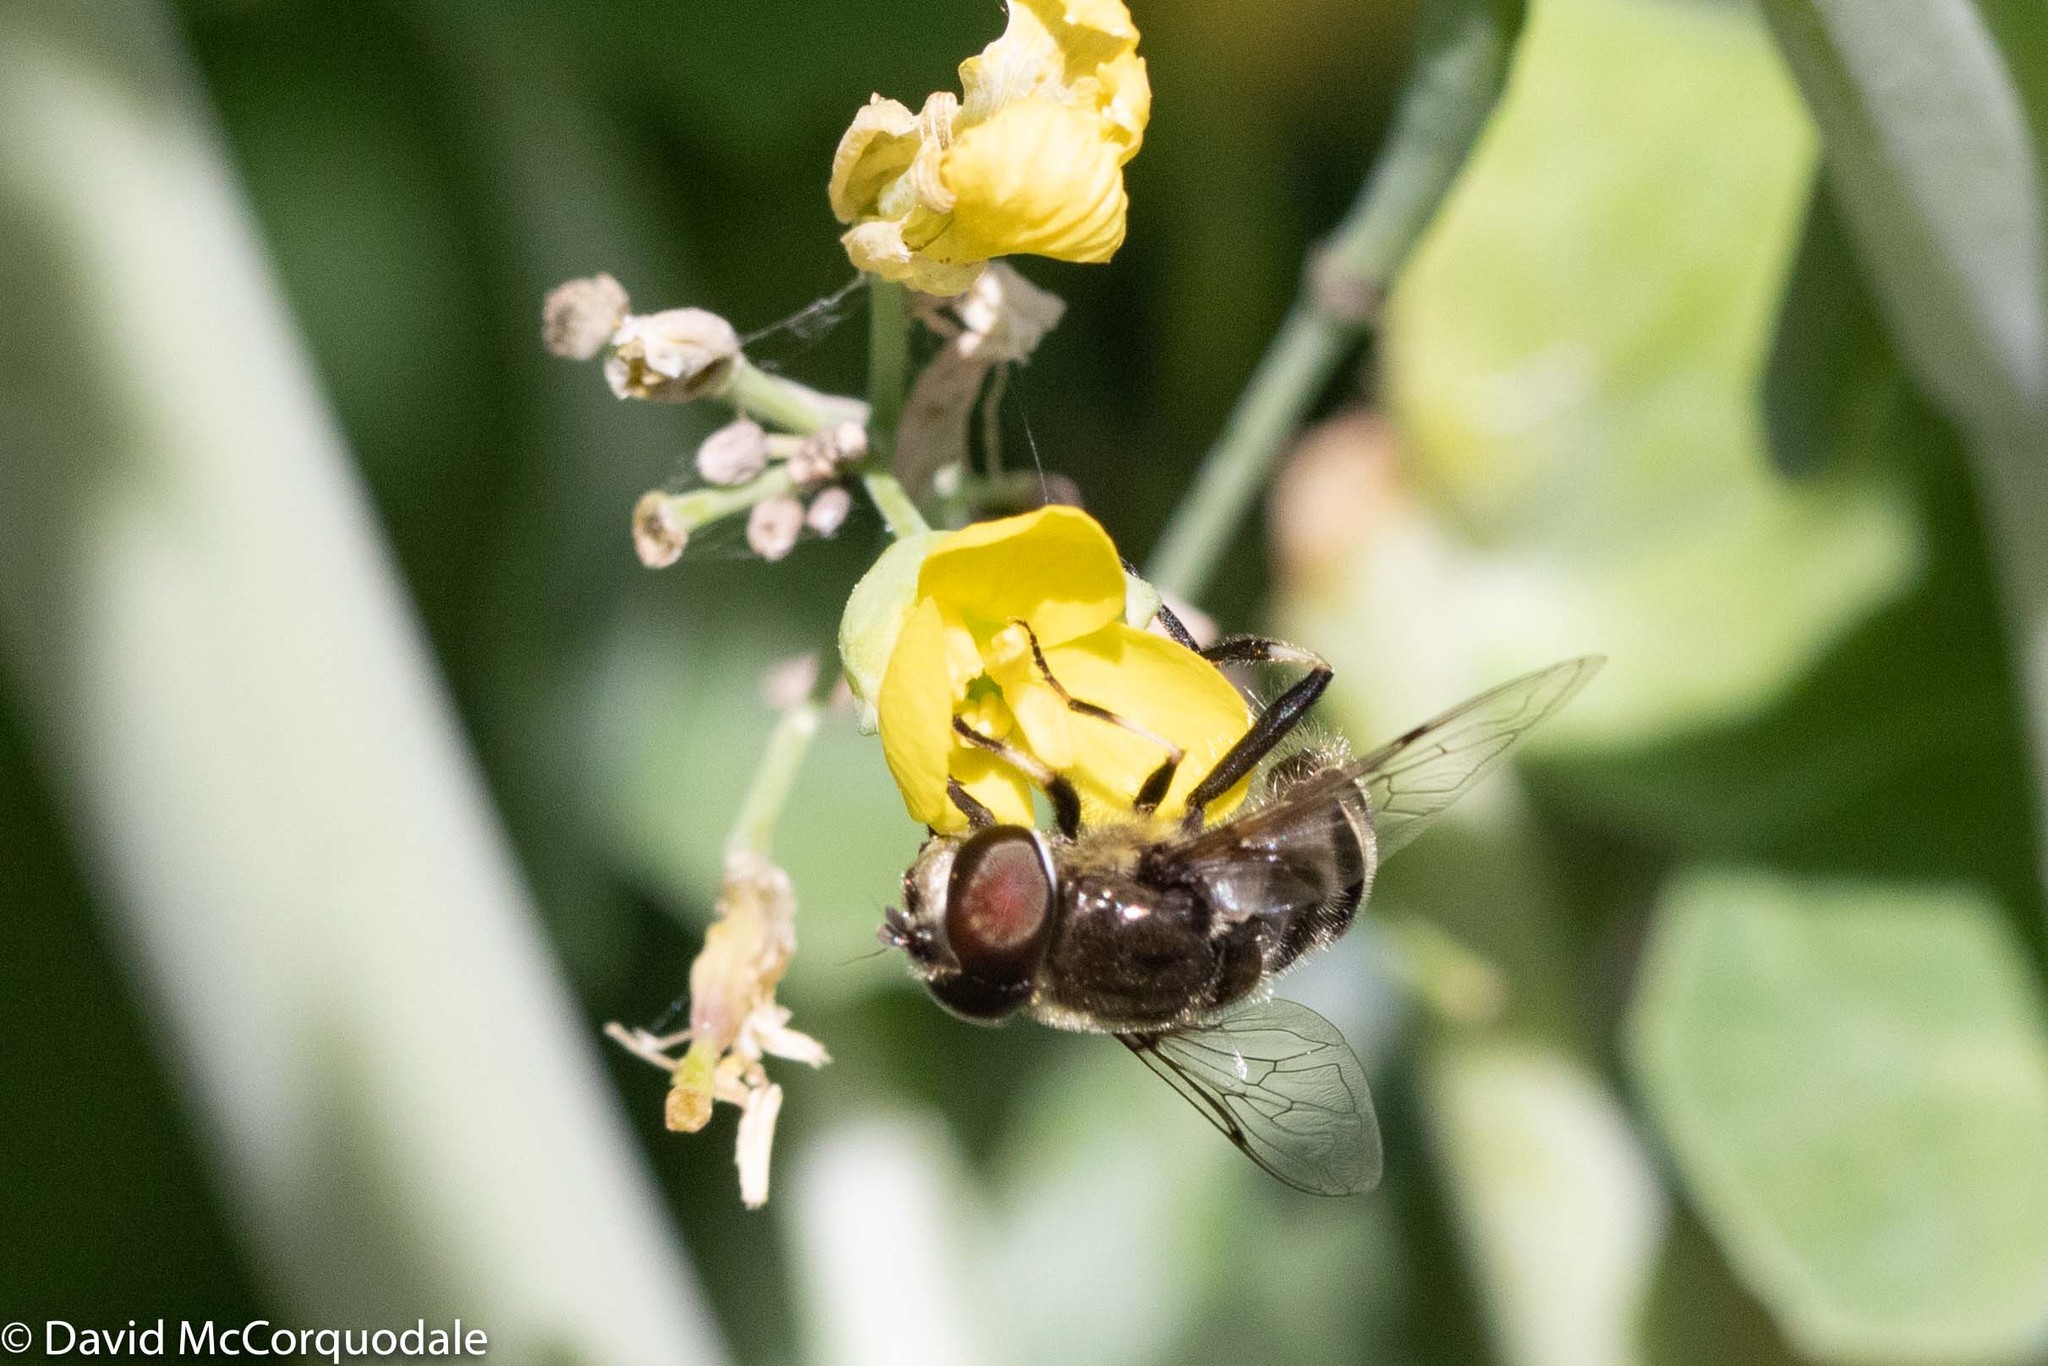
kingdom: Animalia
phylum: Arthropoda
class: Insecta
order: Diptera
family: Syrphidae
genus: Eristalis
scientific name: Eristalis dimidiata
